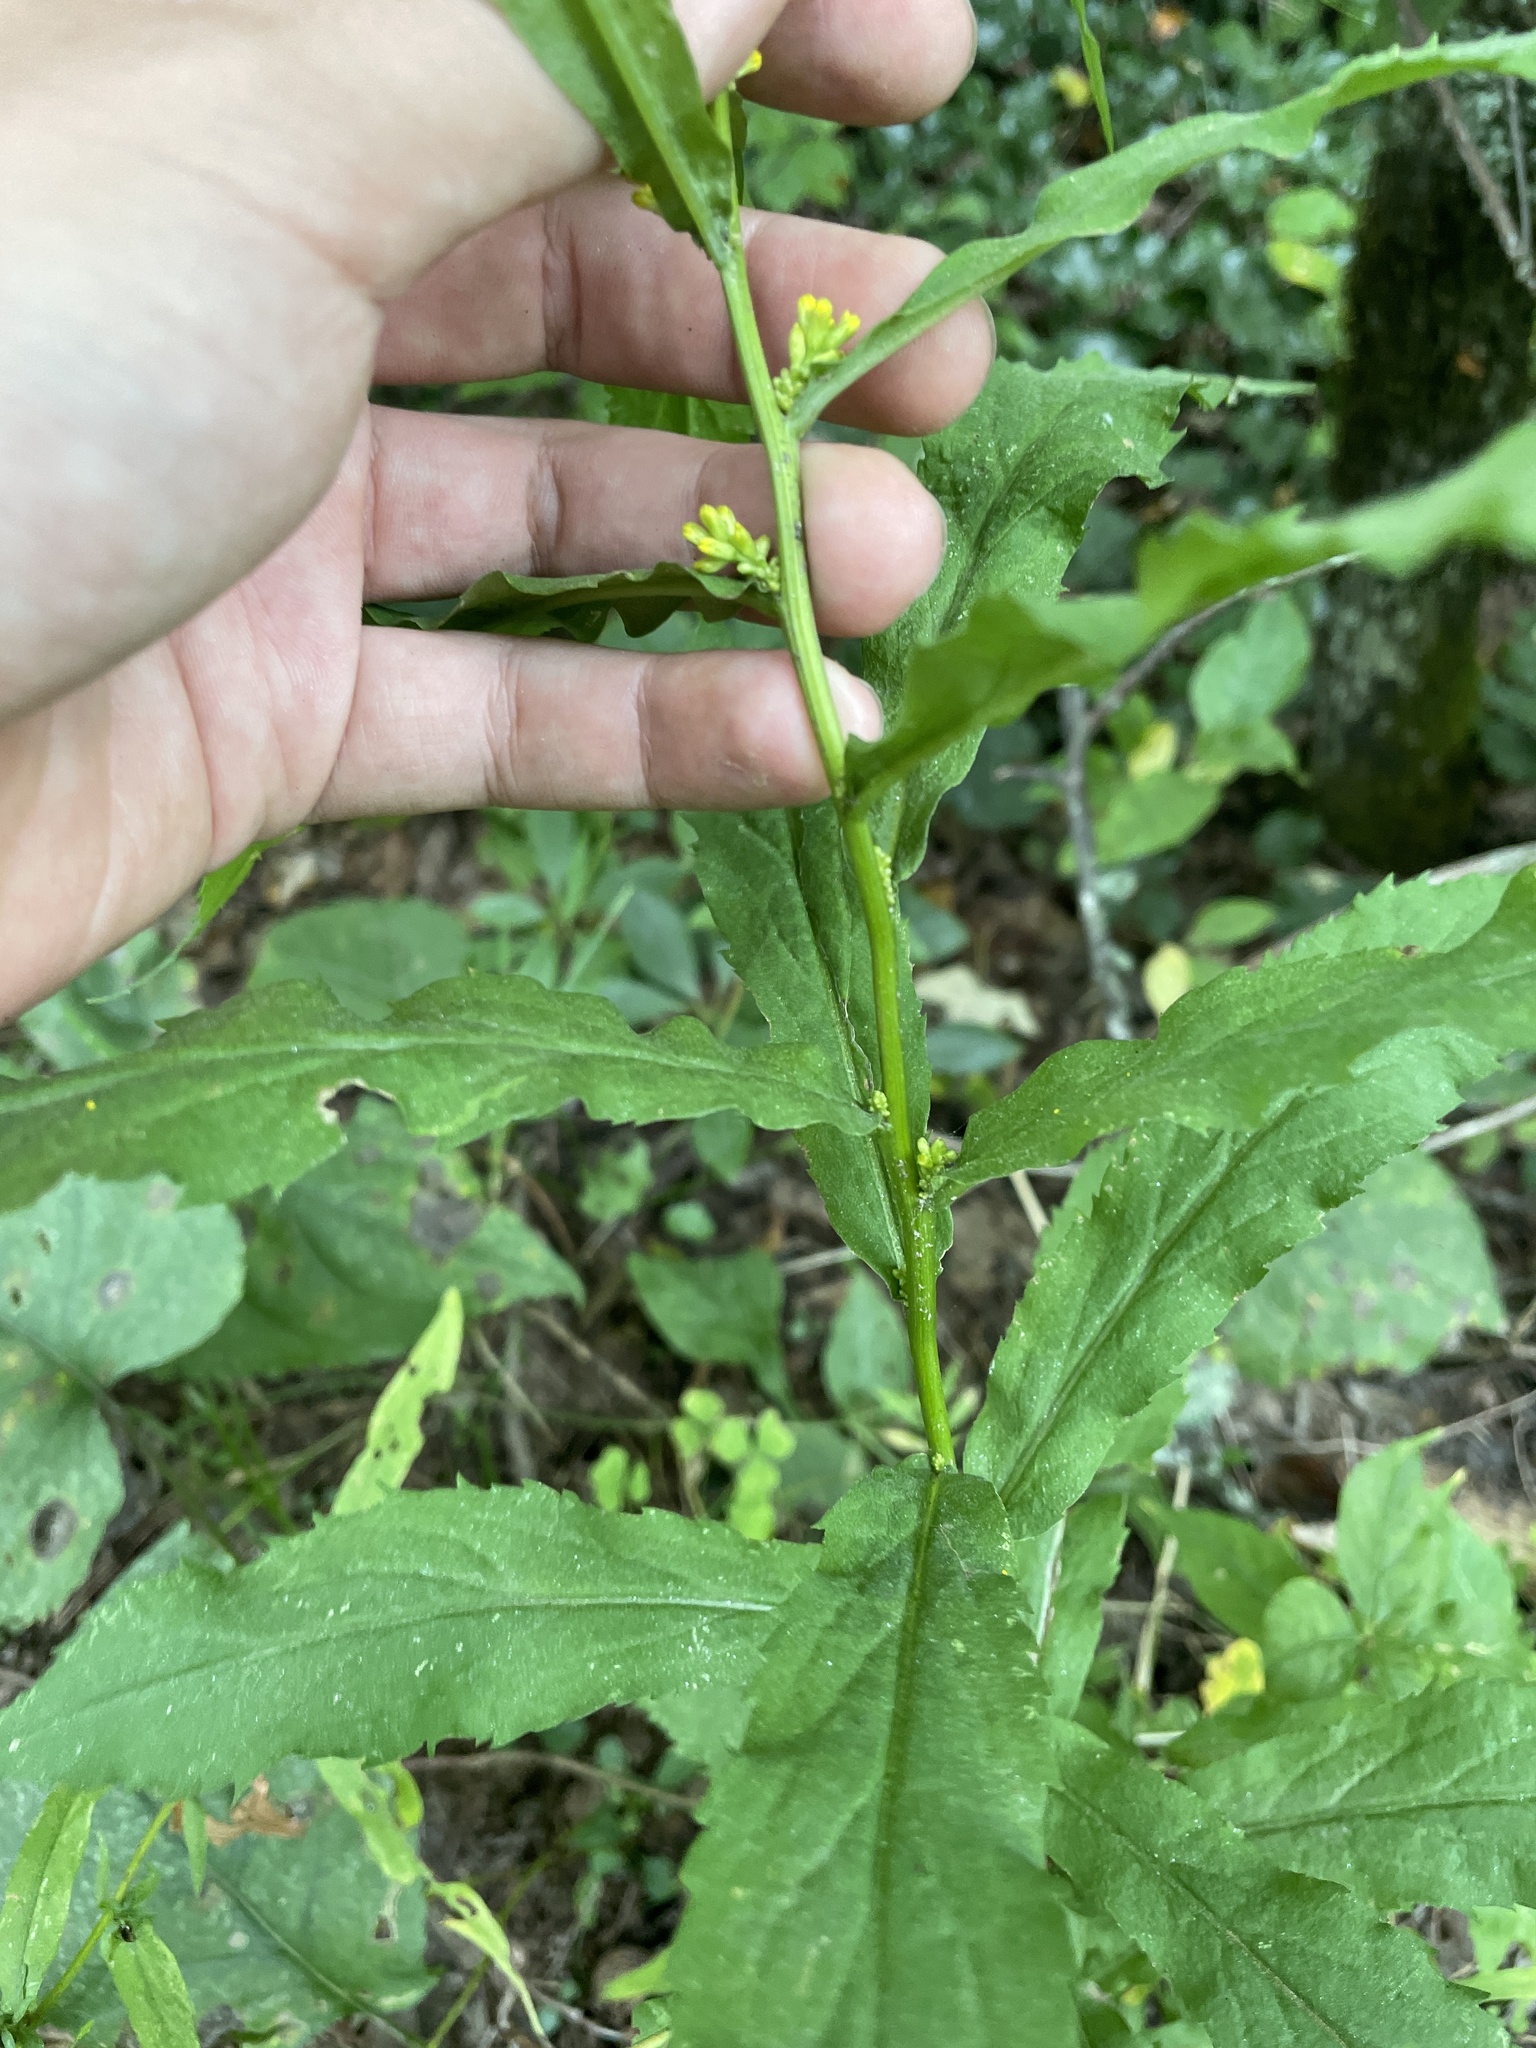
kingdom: Plantae
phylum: Tracheophyta
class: Magnoliopsida
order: Asterales
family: Asteraceae
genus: Solidago
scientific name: Solidago curtisii
